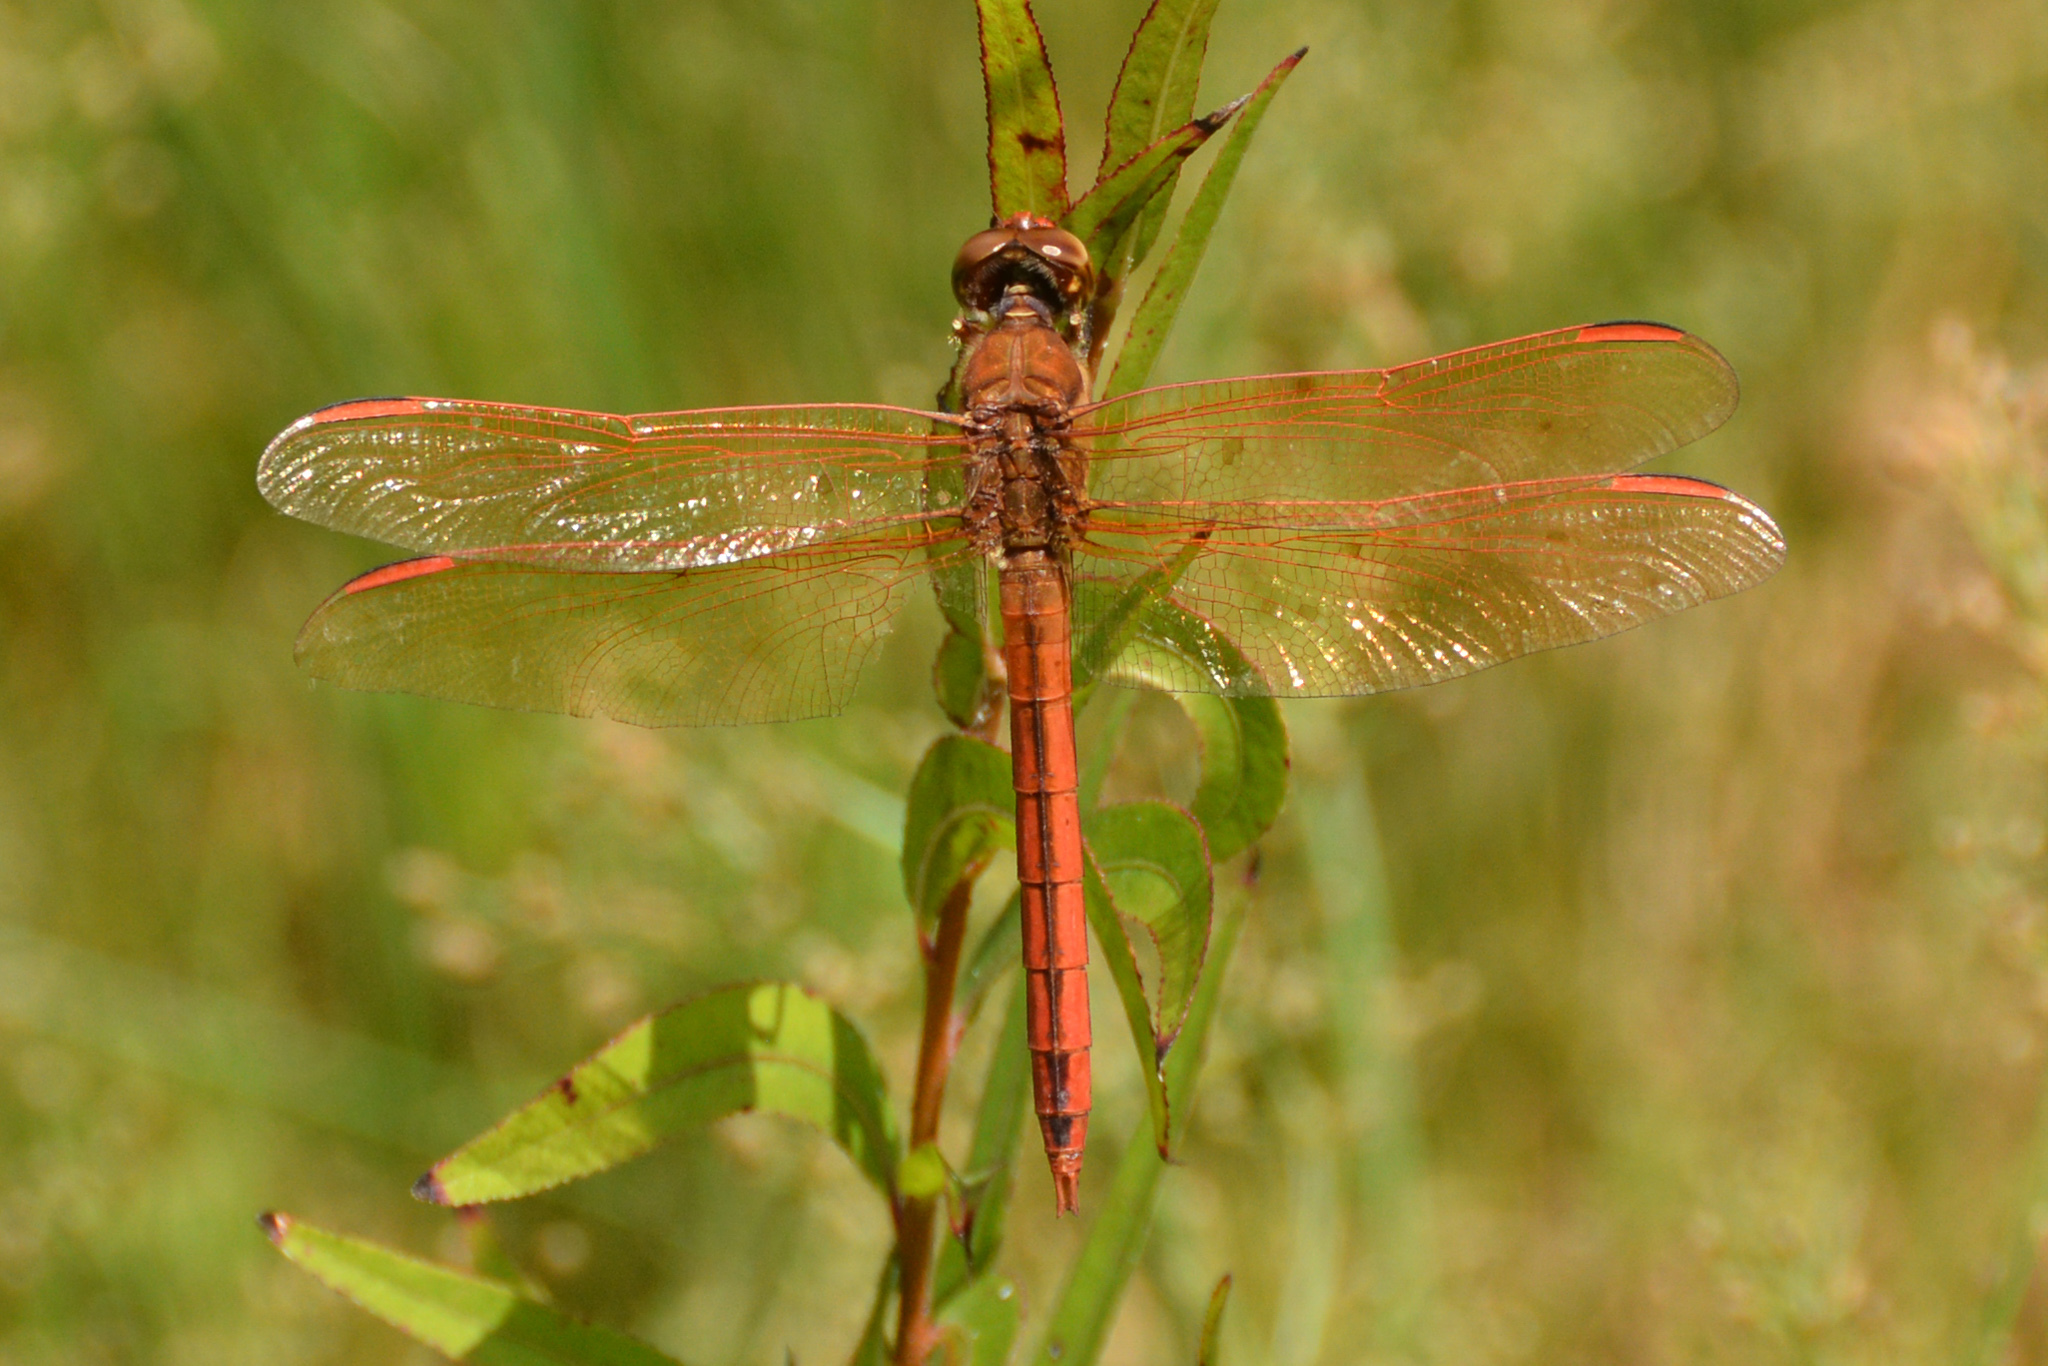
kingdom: Animalia
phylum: Arthropoda
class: Insecta
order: Odonata
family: Libellulidae
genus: Libellula
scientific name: Libellula auripennis
